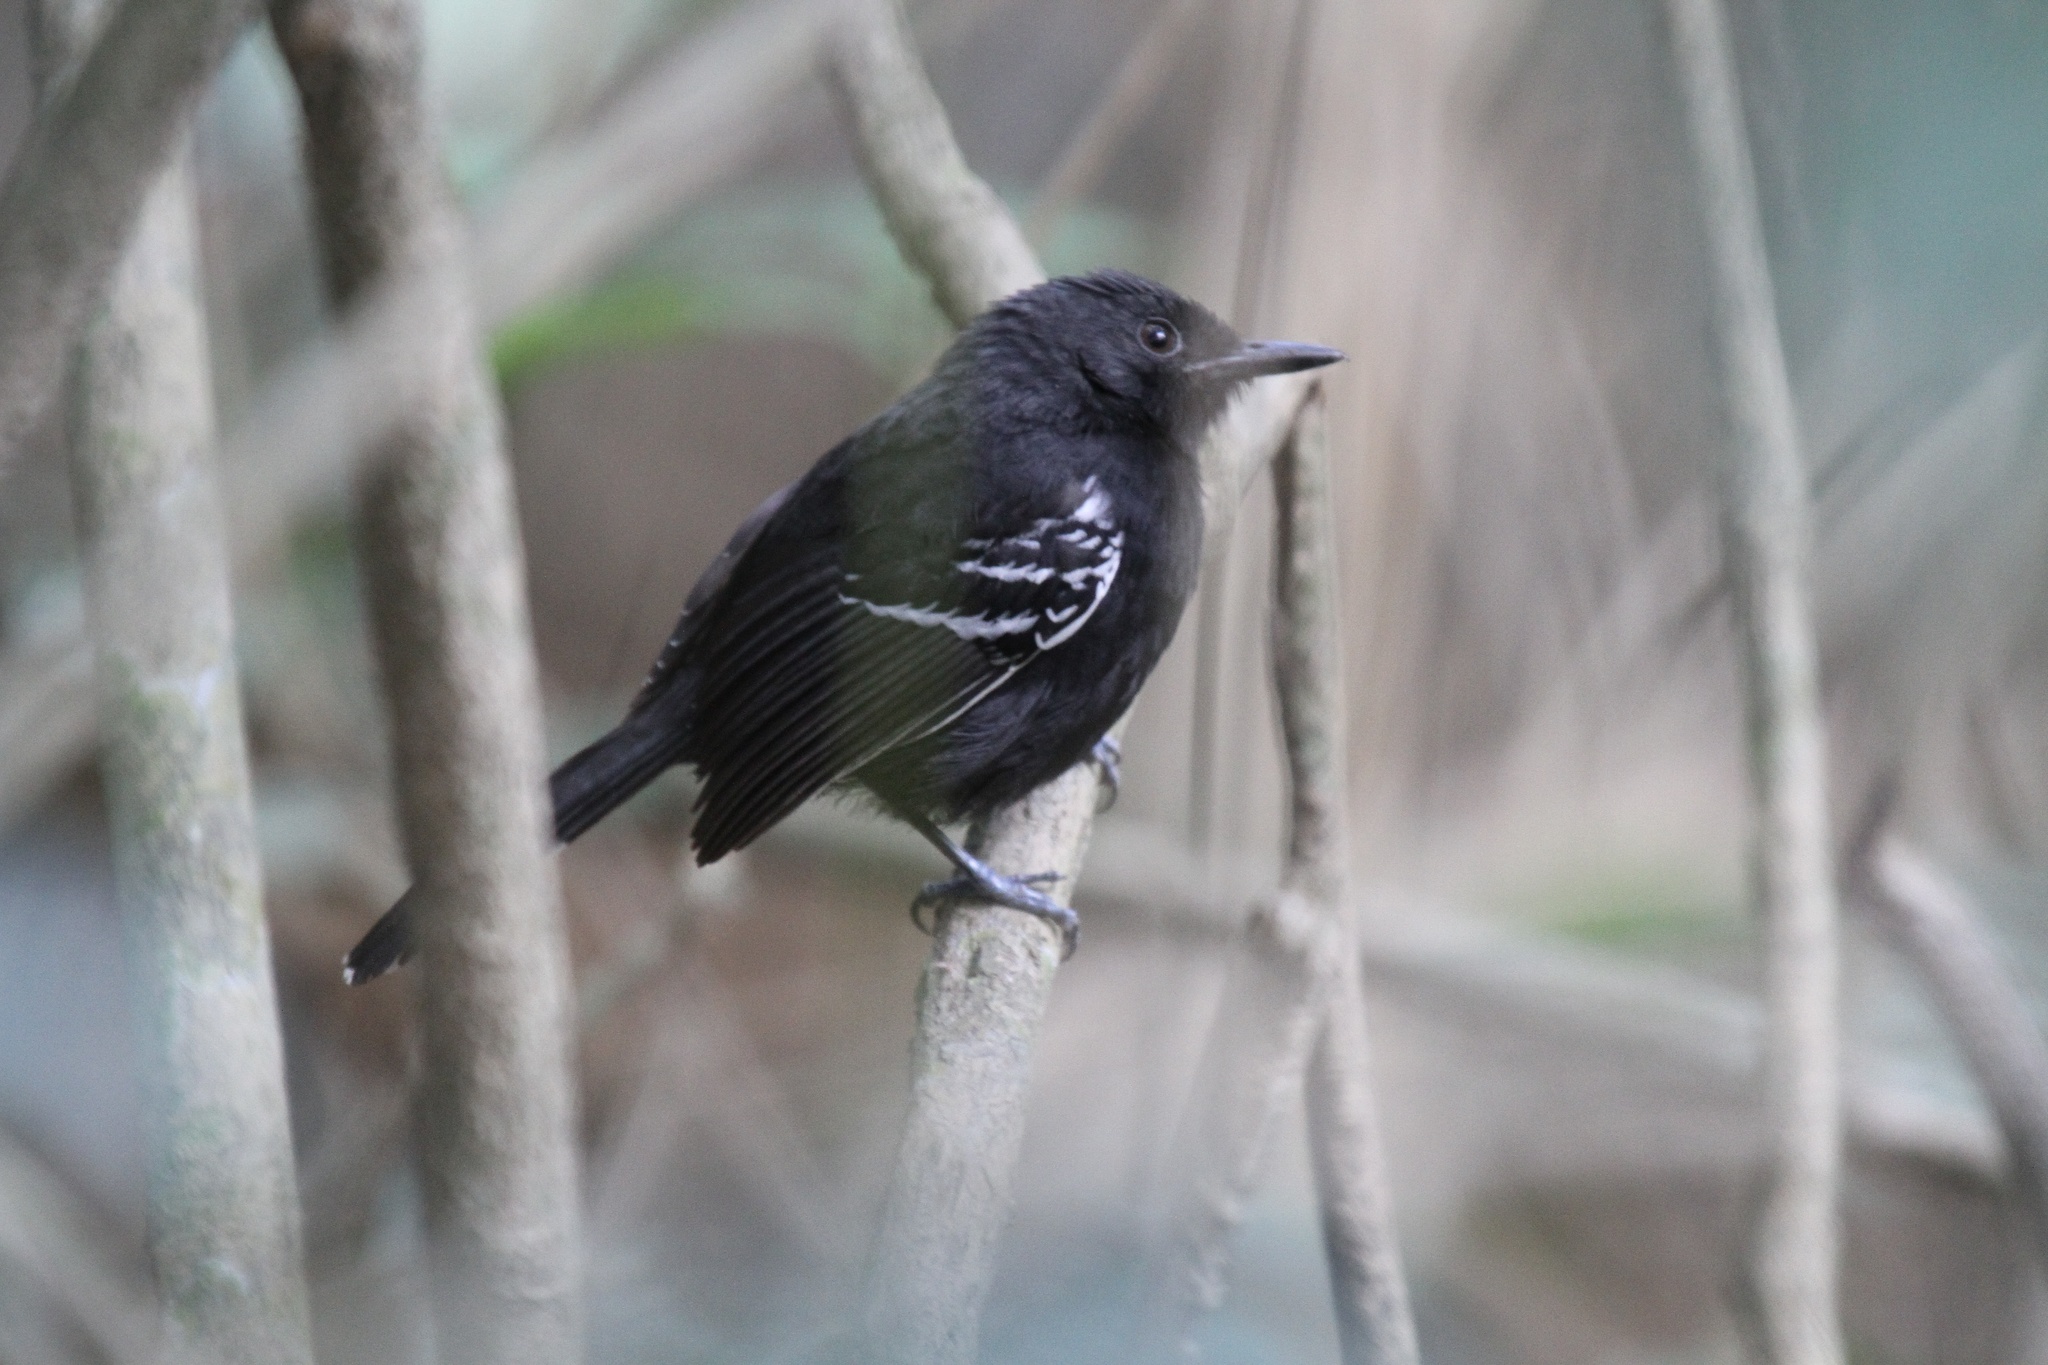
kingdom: Animalia
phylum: Chordata
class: Aves
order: Passeriformes
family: Thamnophilidae
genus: Cercomacra
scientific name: Cercomacra carbonaria
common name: Rio branco antbird
